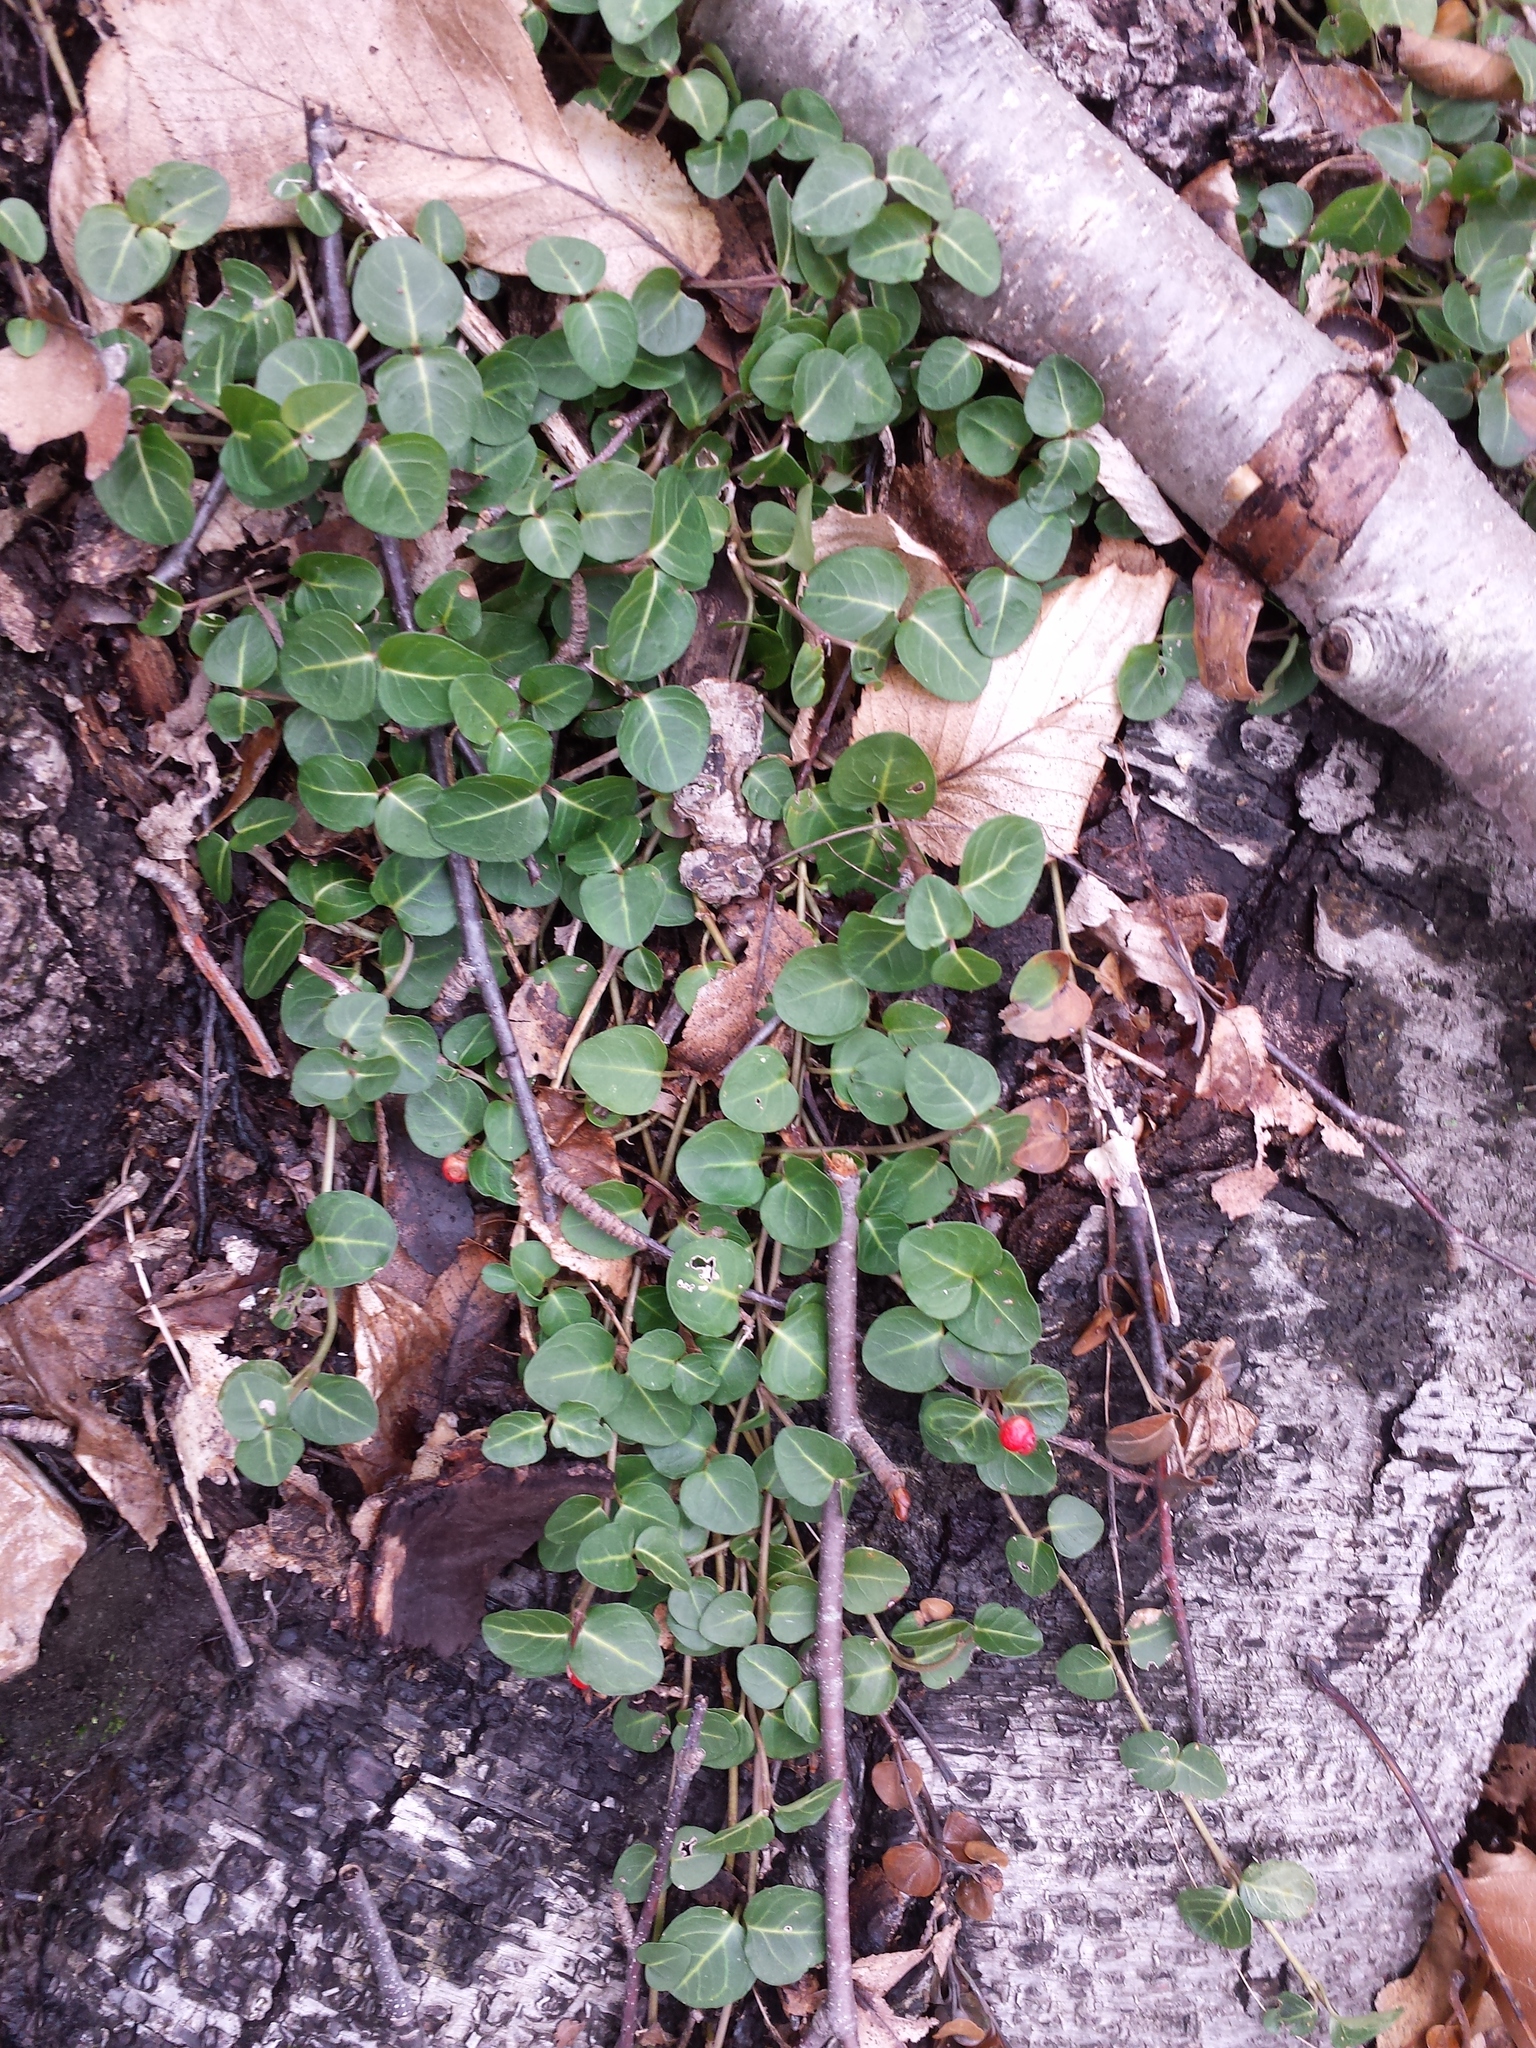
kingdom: Plantae
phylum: Tracheophyta
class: Magnoliopsida
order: Gentianales
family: Rubiaceae
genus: Mitchella
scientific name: Mitchella repens
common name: Partridge-berry
